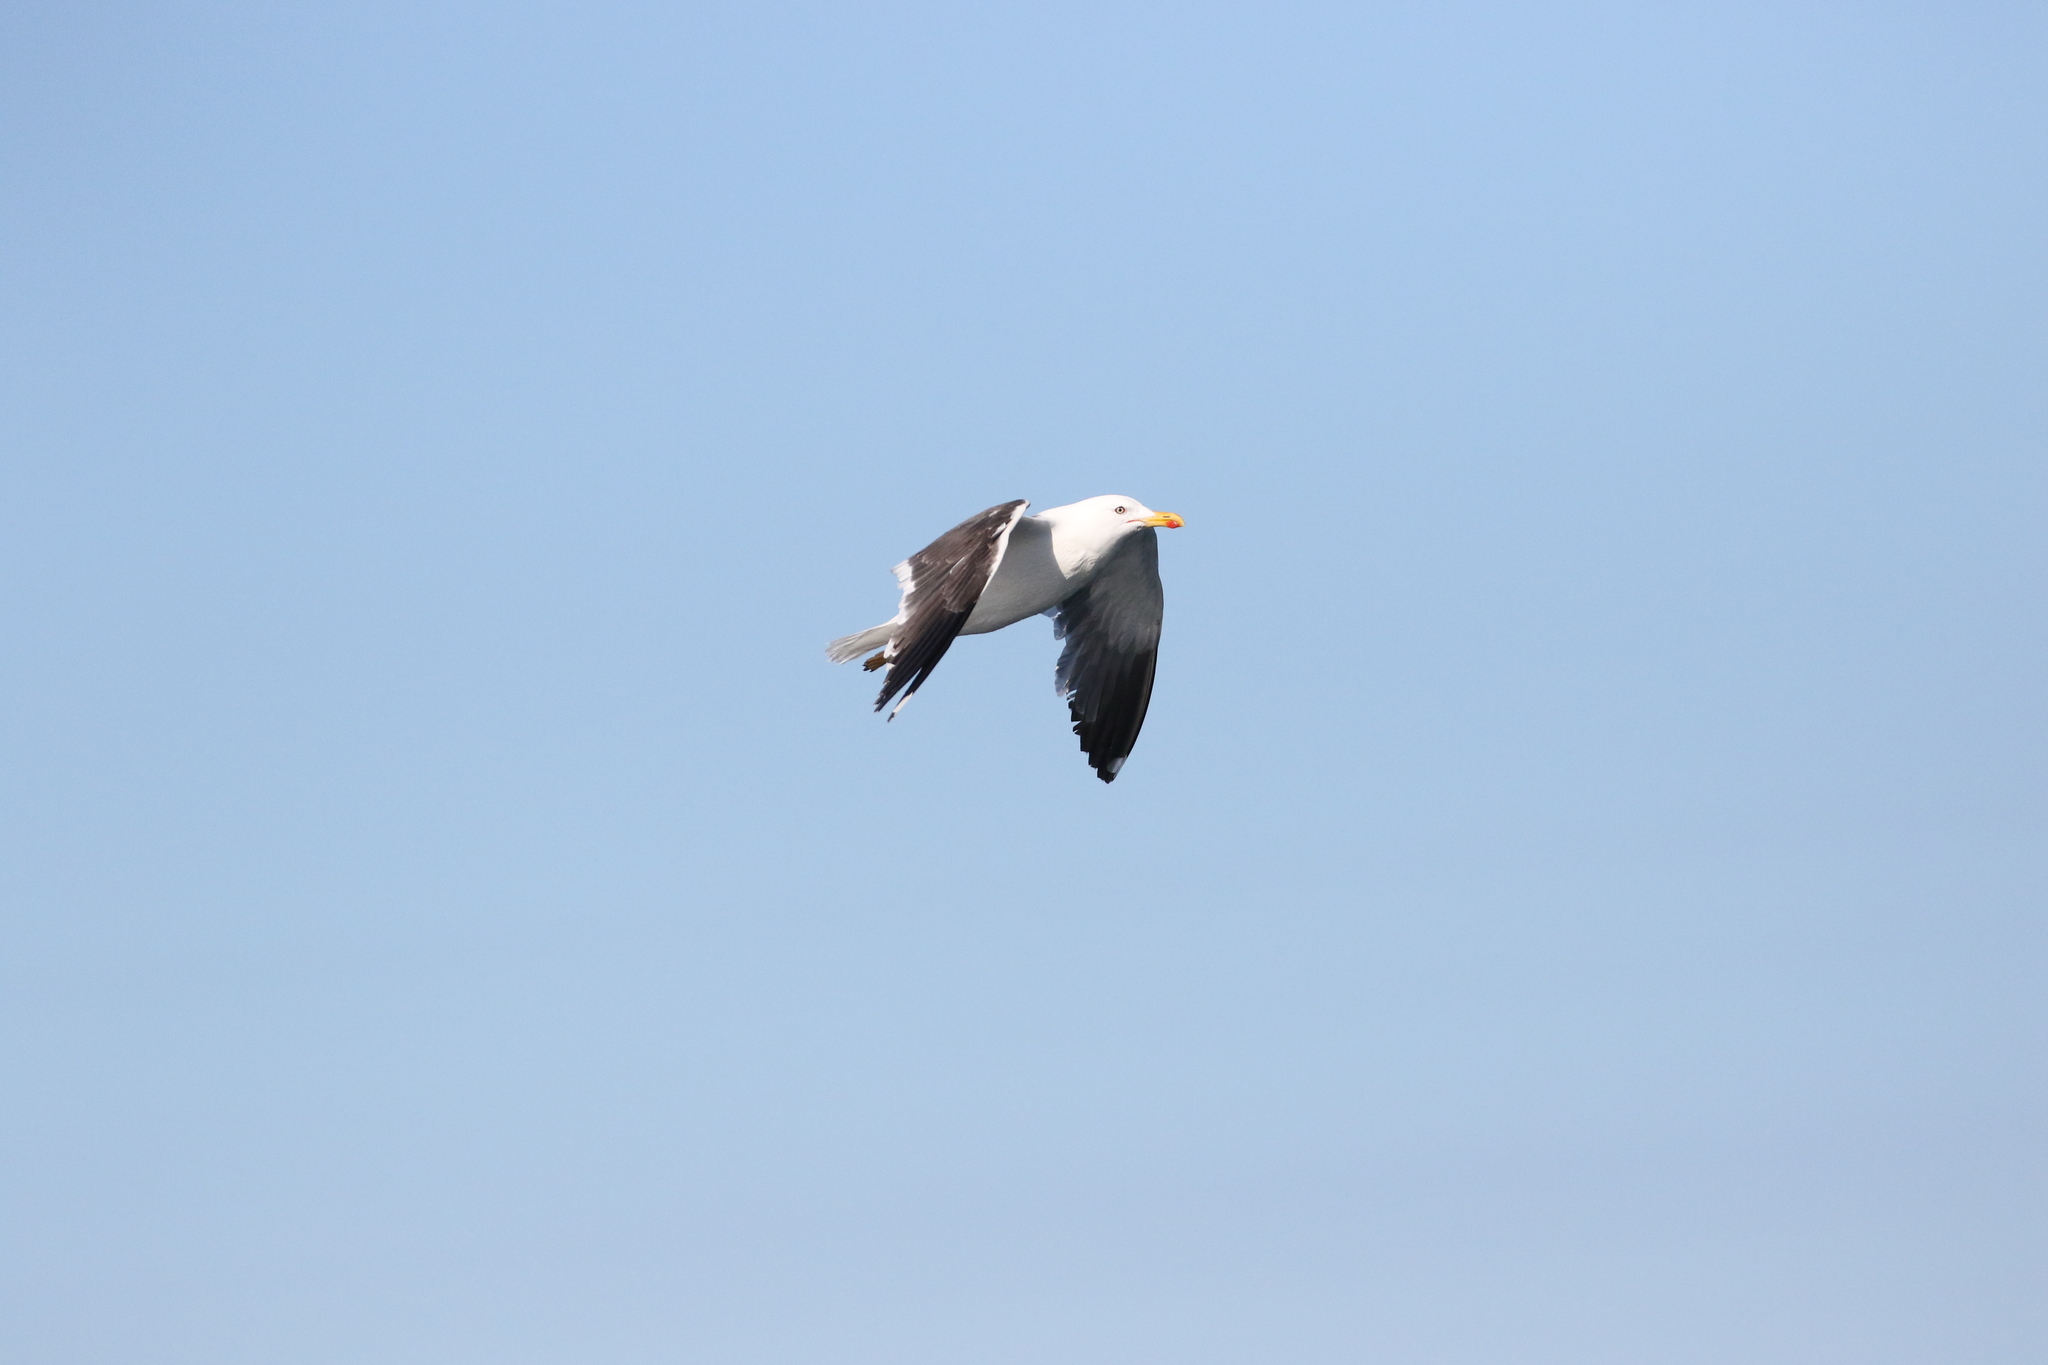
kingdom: Animalia
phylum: Chordata
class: Aves
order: Charadriiformes
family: Laridae
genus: Larus
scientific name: Larus fuscus
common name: Lesser black-backed gull
